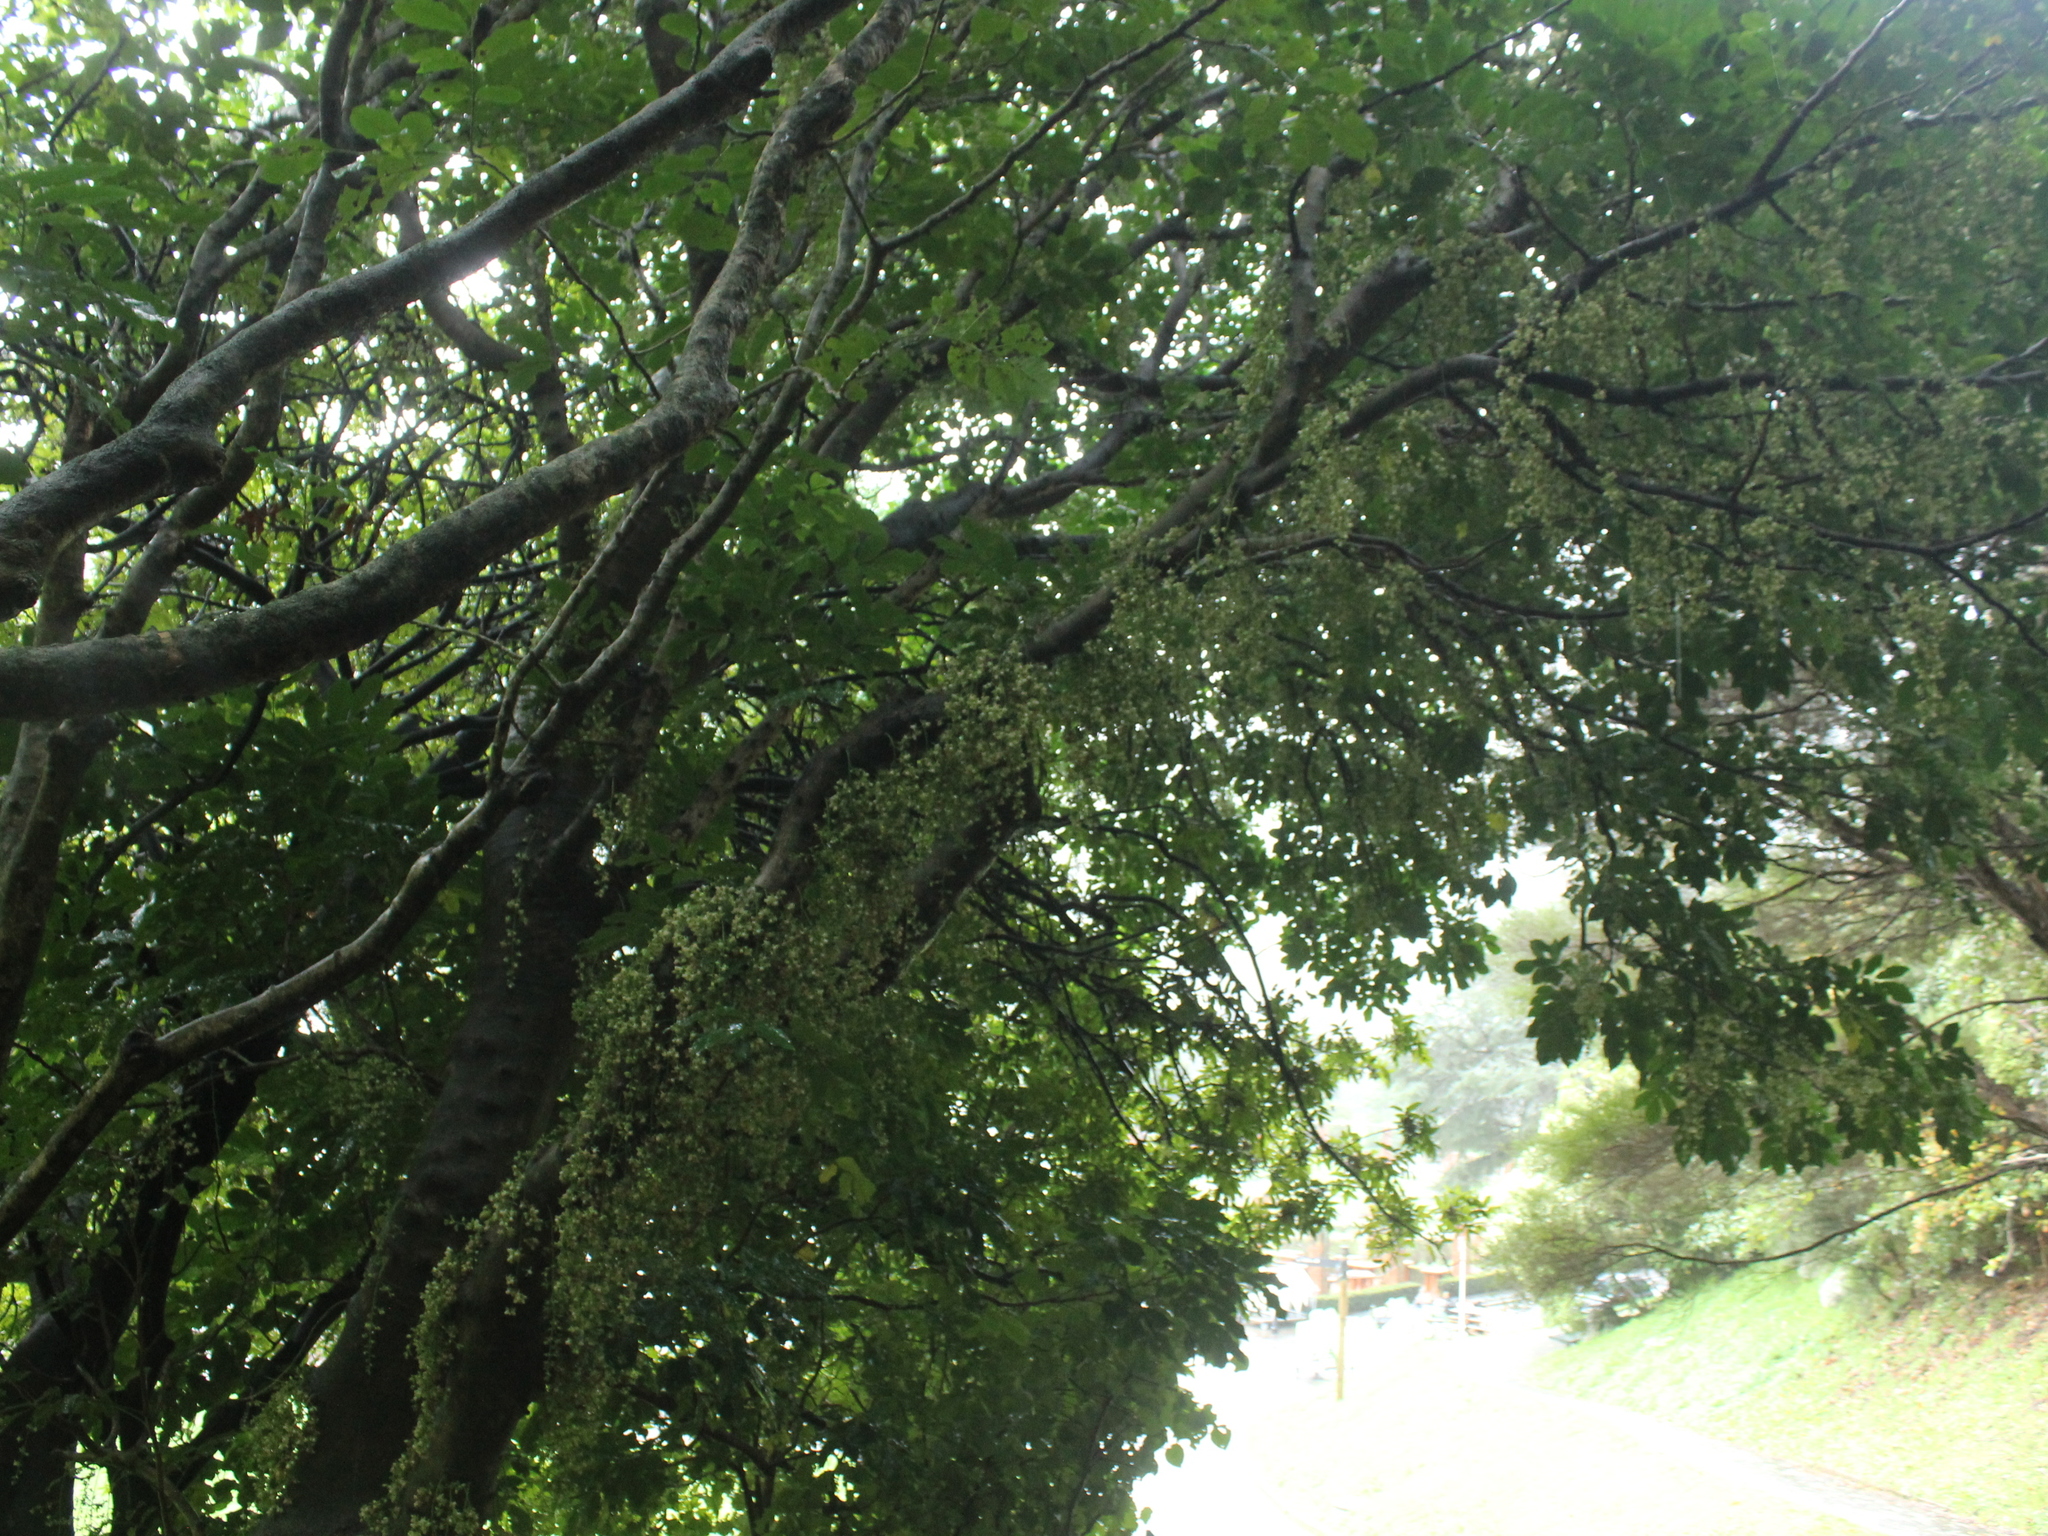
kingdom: Plantae
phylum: Tracheophyta
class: Magnoliopsida
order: Sapindales
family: Meliaceae
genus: Didymocheton
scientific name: Didymocheton spectabilis
